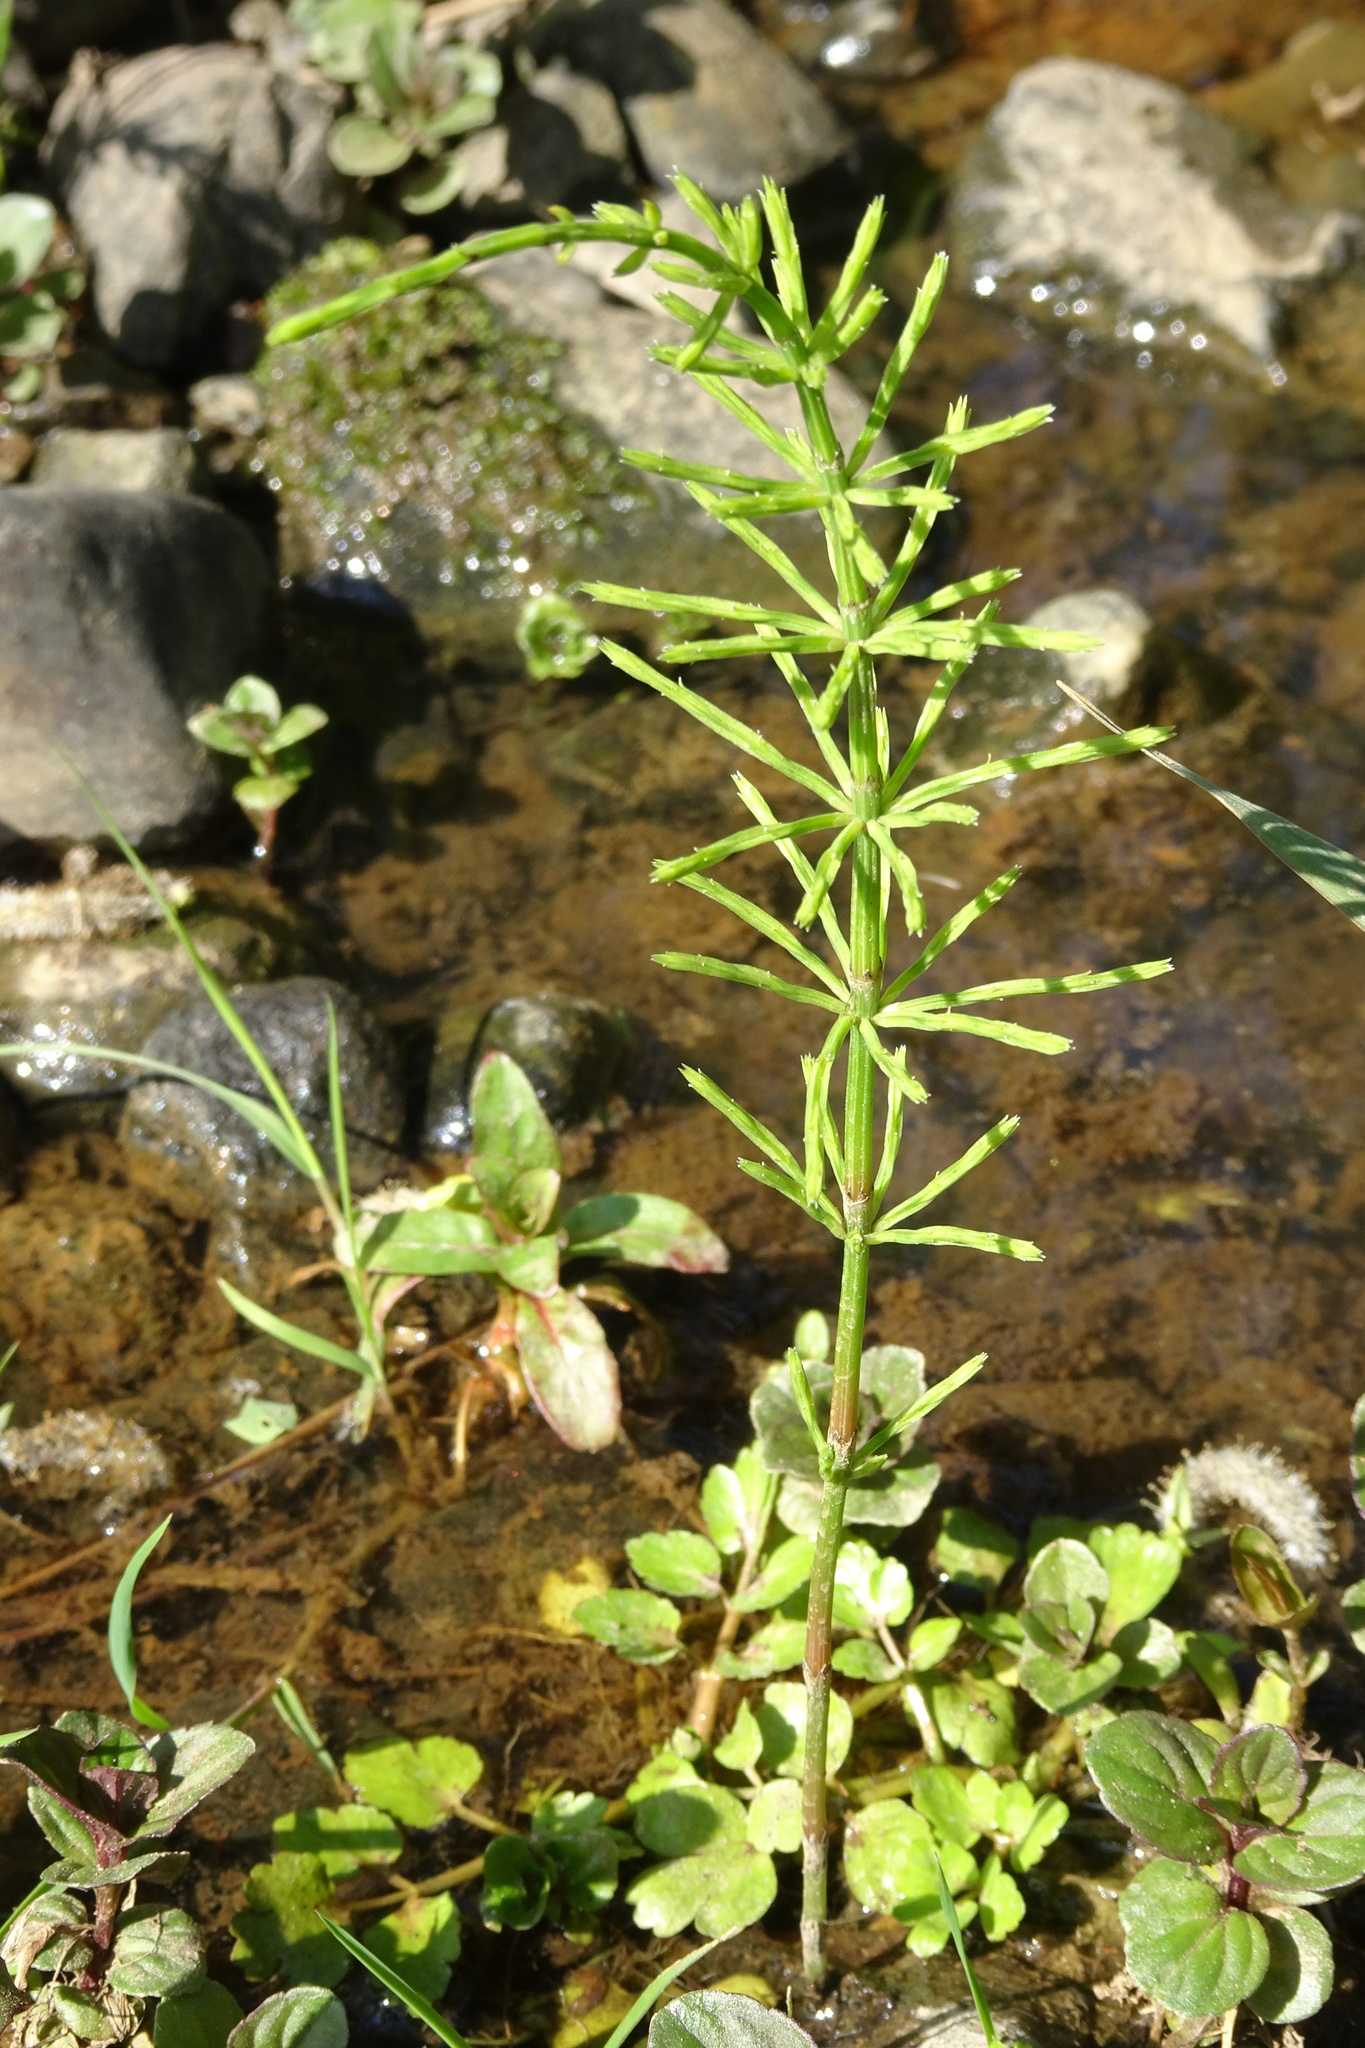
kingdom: Plantae
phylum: Tracheophyta
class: Polypodiopsida
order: Equisetales
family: Equisetaceae
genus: Equisetum
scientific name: Equisetum arvense
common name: Field horsetail
